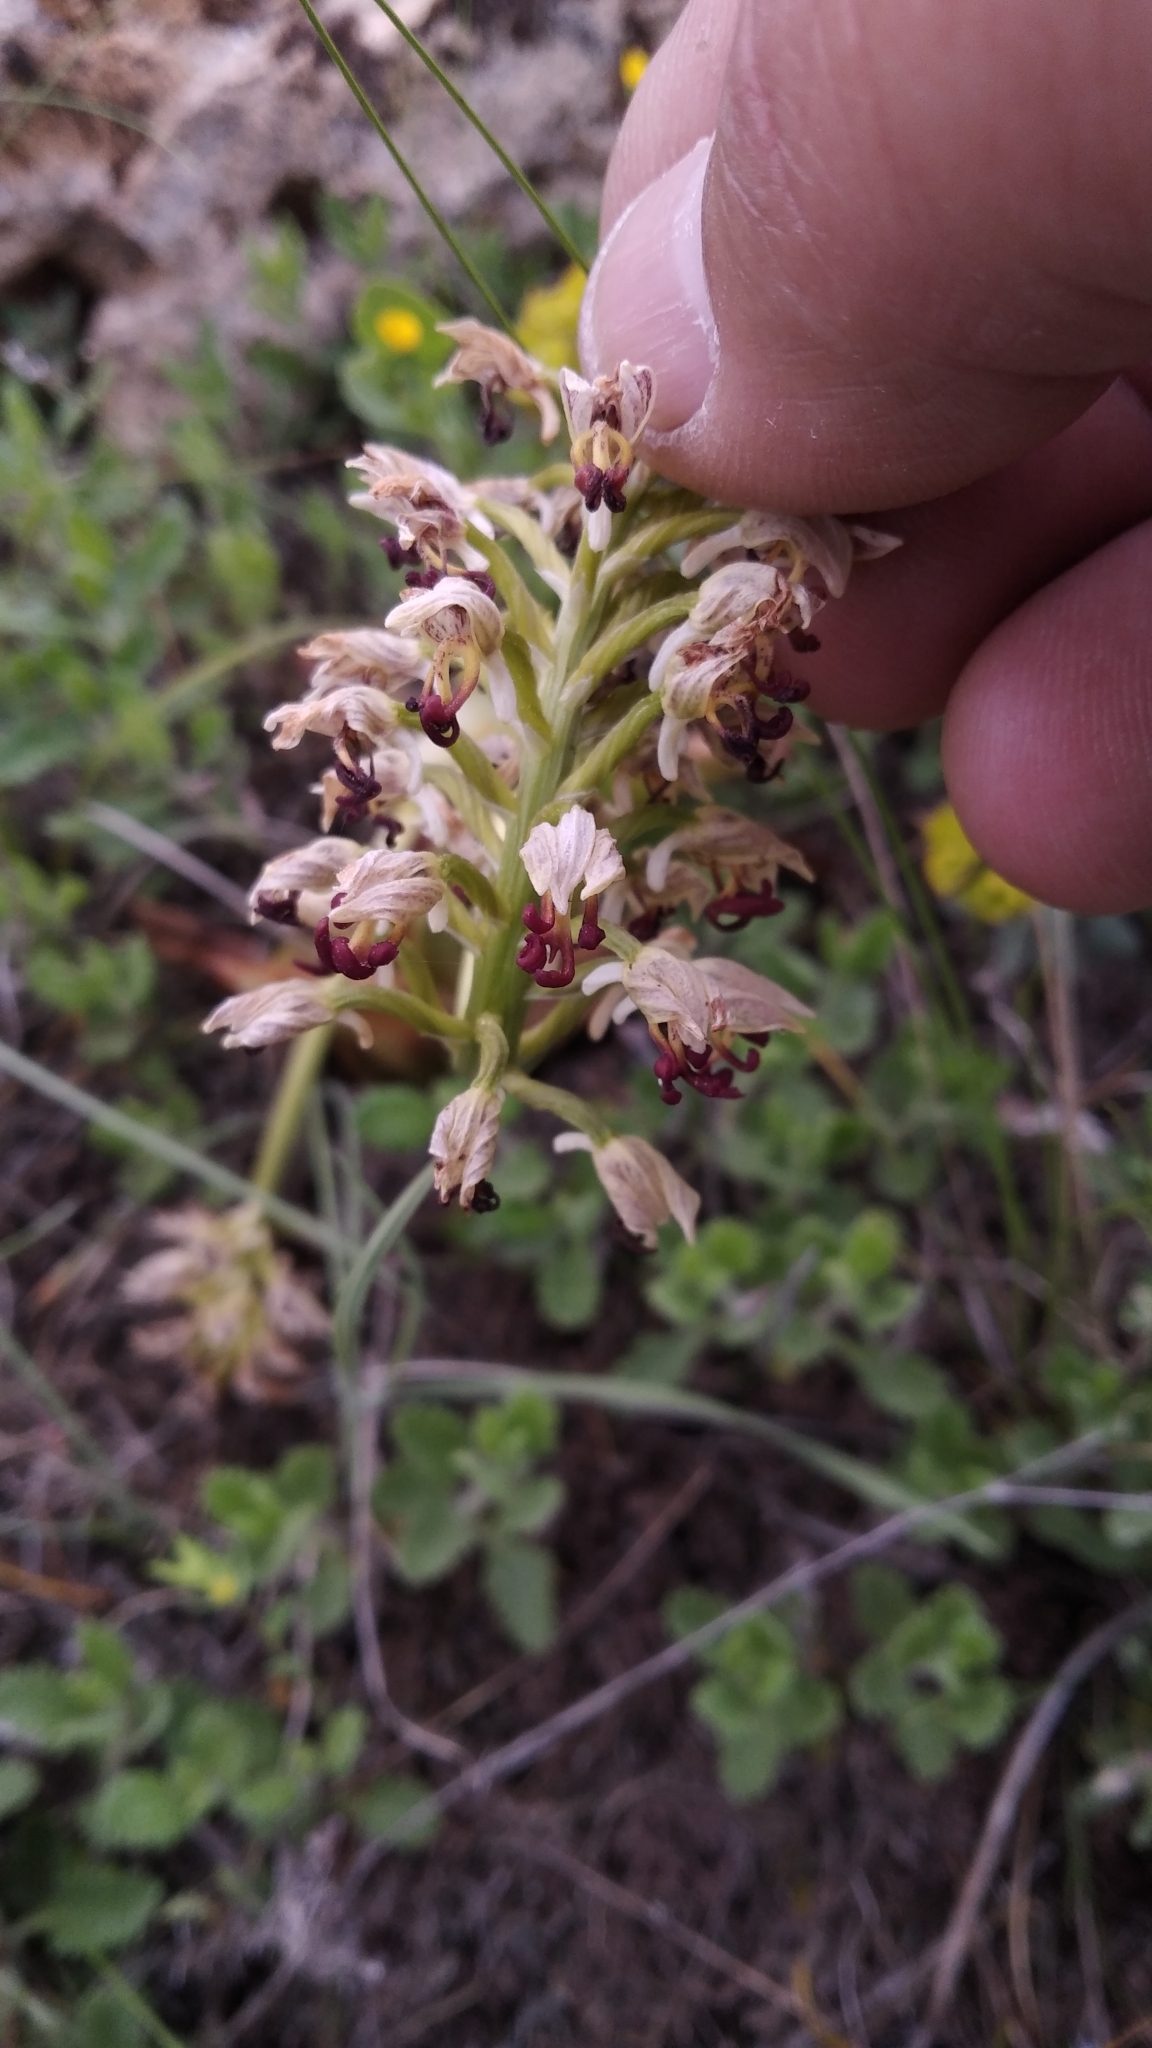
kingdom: Plantae
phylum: Tracheophyta
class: Liliopsida
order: Asparagales
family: Orchidaceae
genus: Orchis
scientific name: Orchis calliantha
